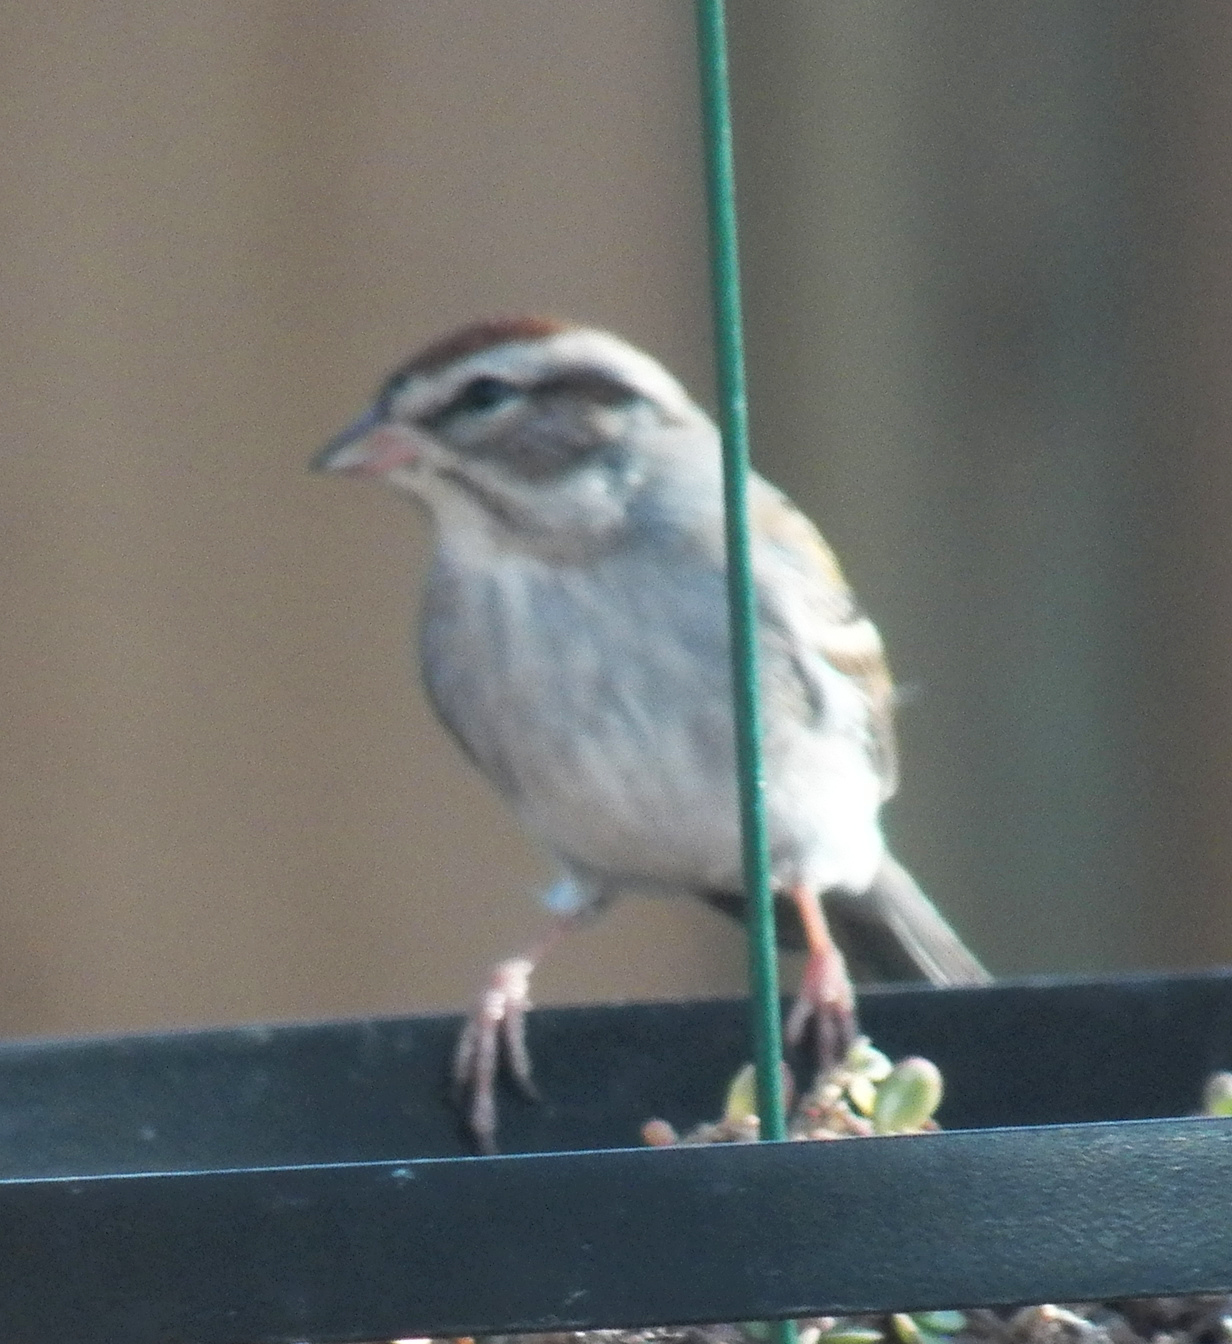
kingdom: Animalia
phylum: Chordata
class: Aves
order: Passeriformes
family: Passerellidae
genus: Spizella
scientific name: Spizella passerina
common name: Chipping sparrow
